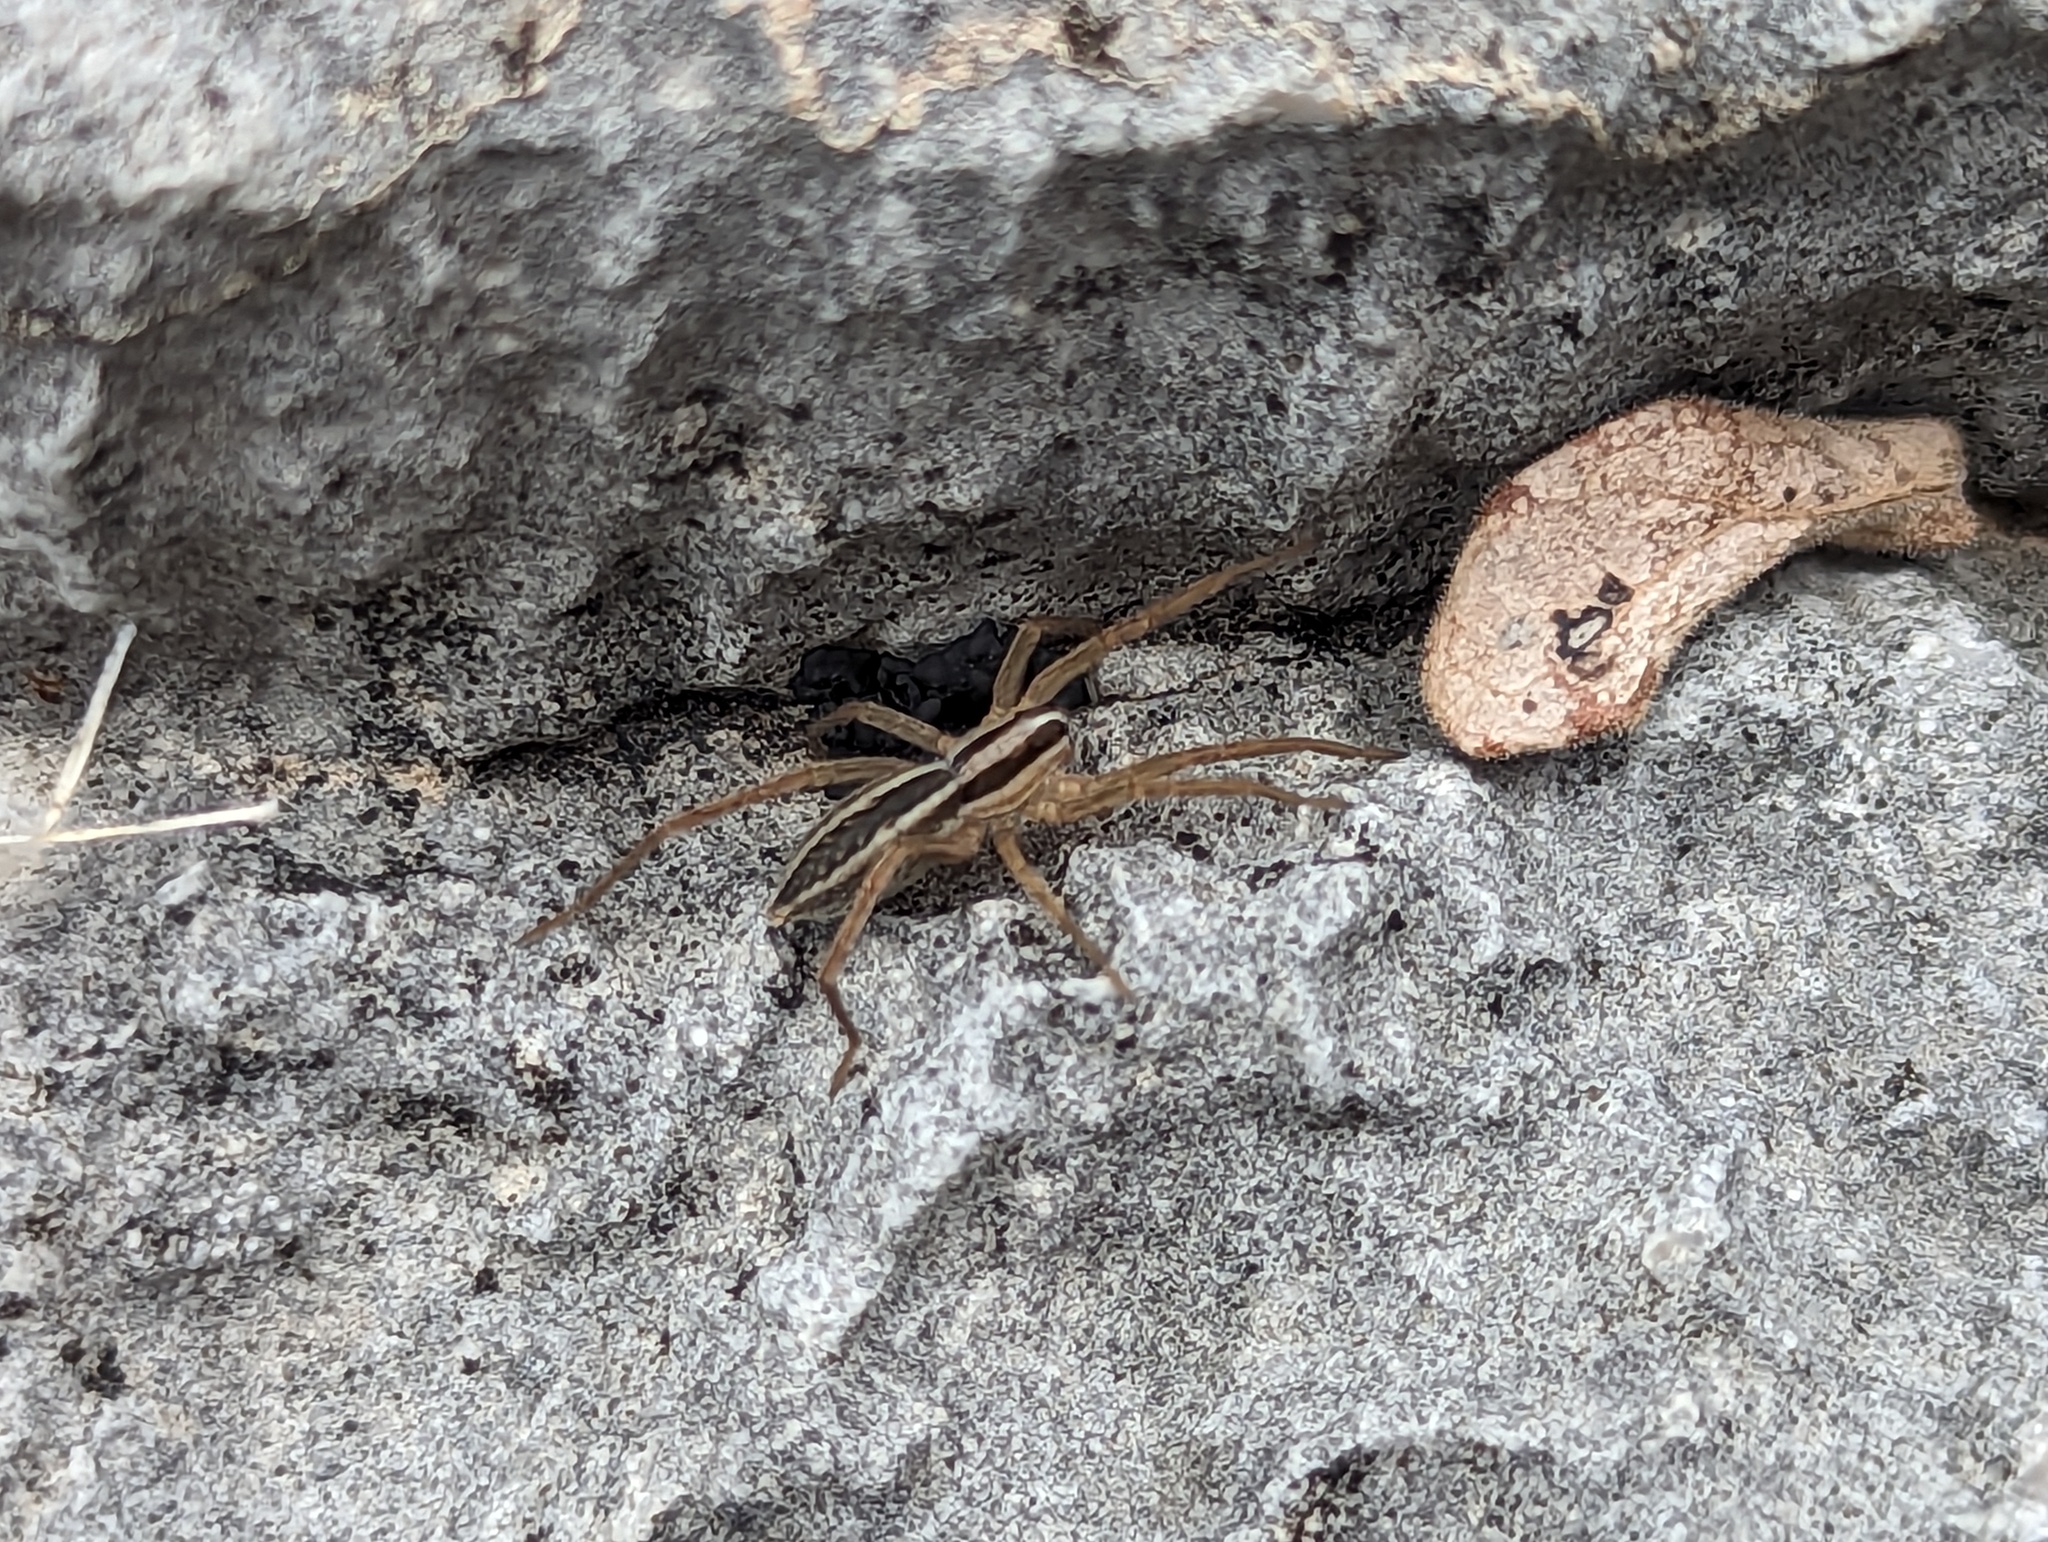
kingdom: Animalia
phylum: Arthropoda
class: Arachnida
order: Araneae
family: Lycosidae
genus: Rabidosa
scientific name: Rabidosa rabida
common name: Rabid wolf spider
